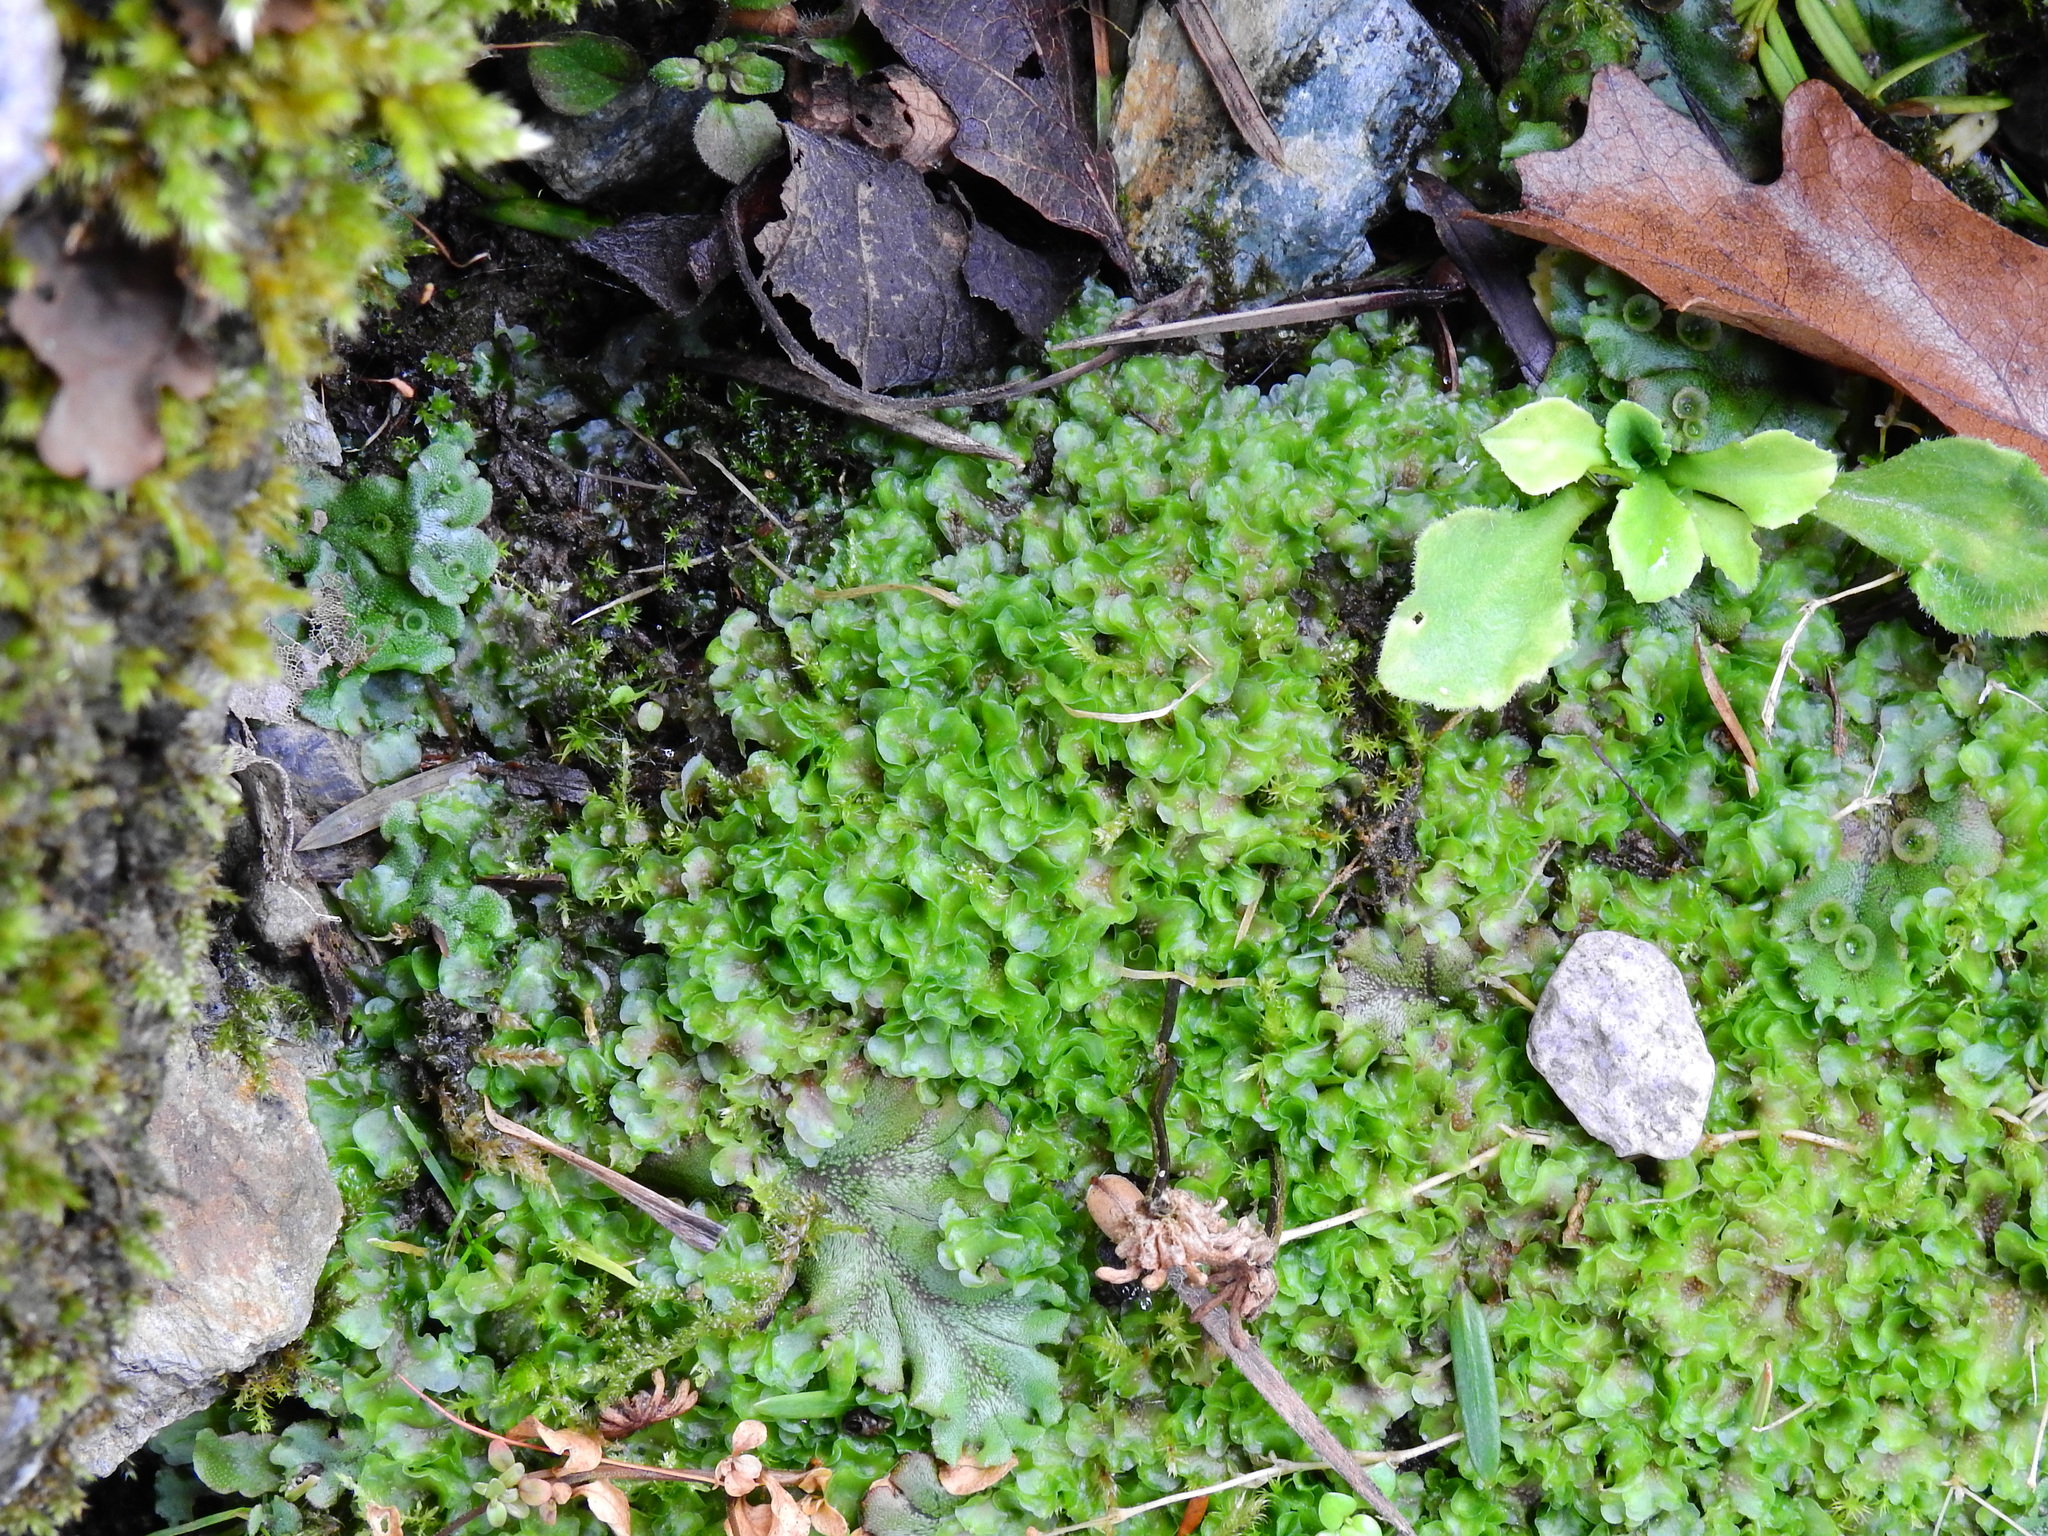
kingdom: Plantae
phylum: Marchantiophyta
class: Jungermanniopsida
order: Pelliales
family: Pelliaceae
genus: Pellia
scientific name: Pellia neesiana
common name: Nees  pellia
